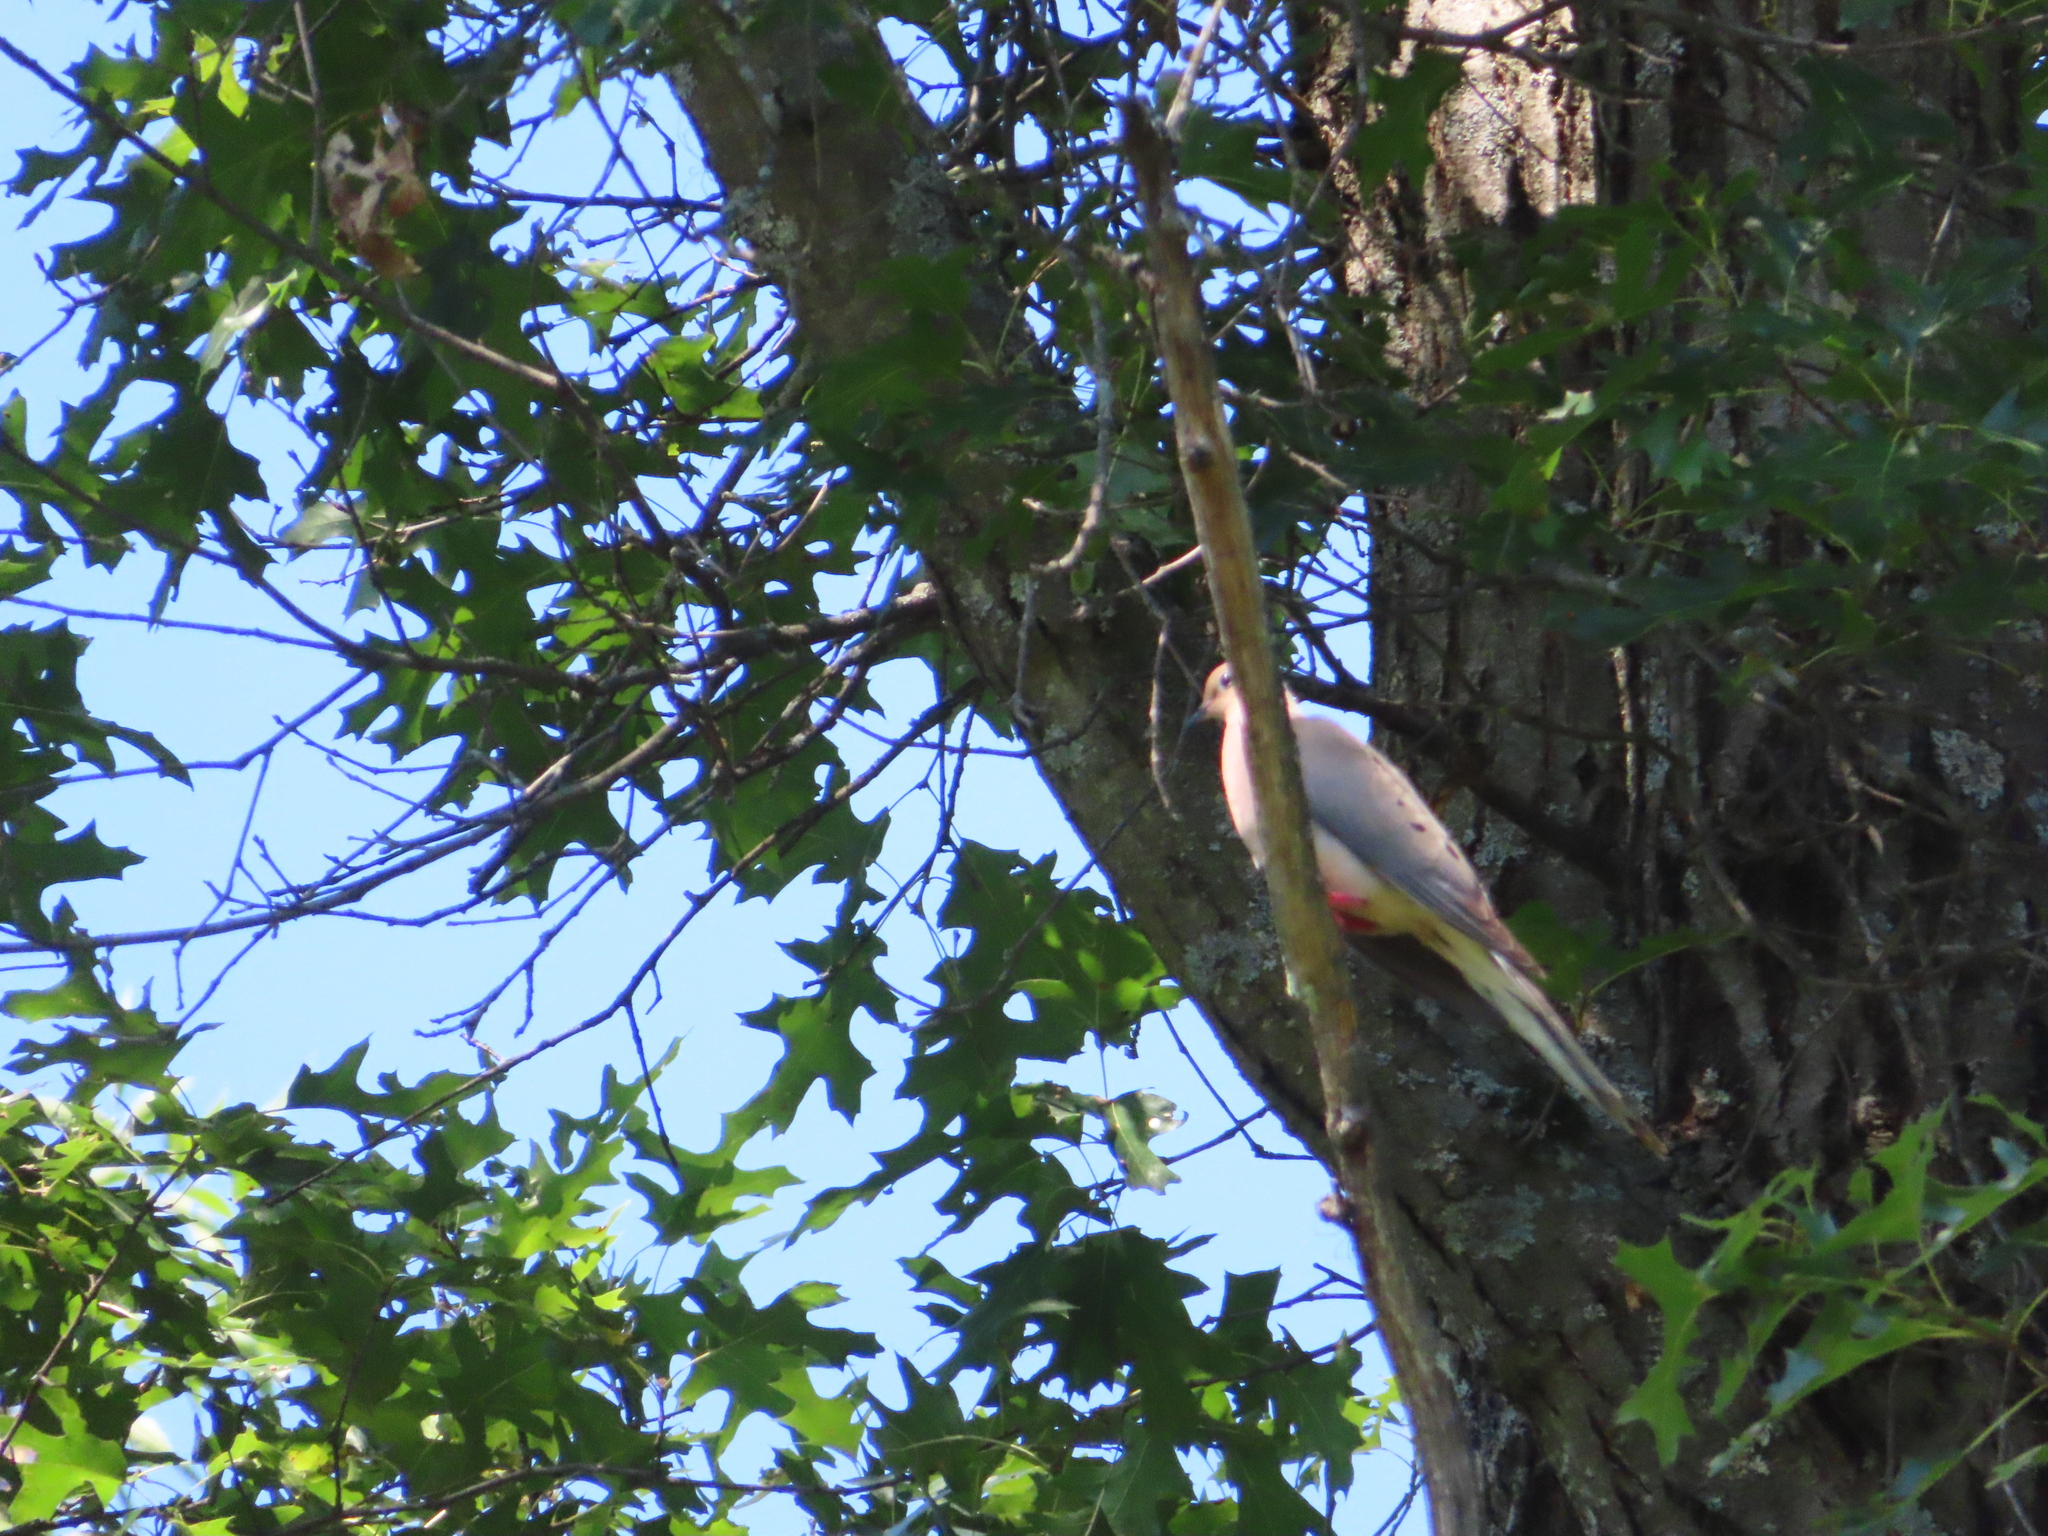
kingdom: Animalia
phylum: Chordata
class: Aves
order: Columbiformes
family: Columbidae
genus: Zenaida
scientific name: Zenaida macroura
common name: Mourning dove
